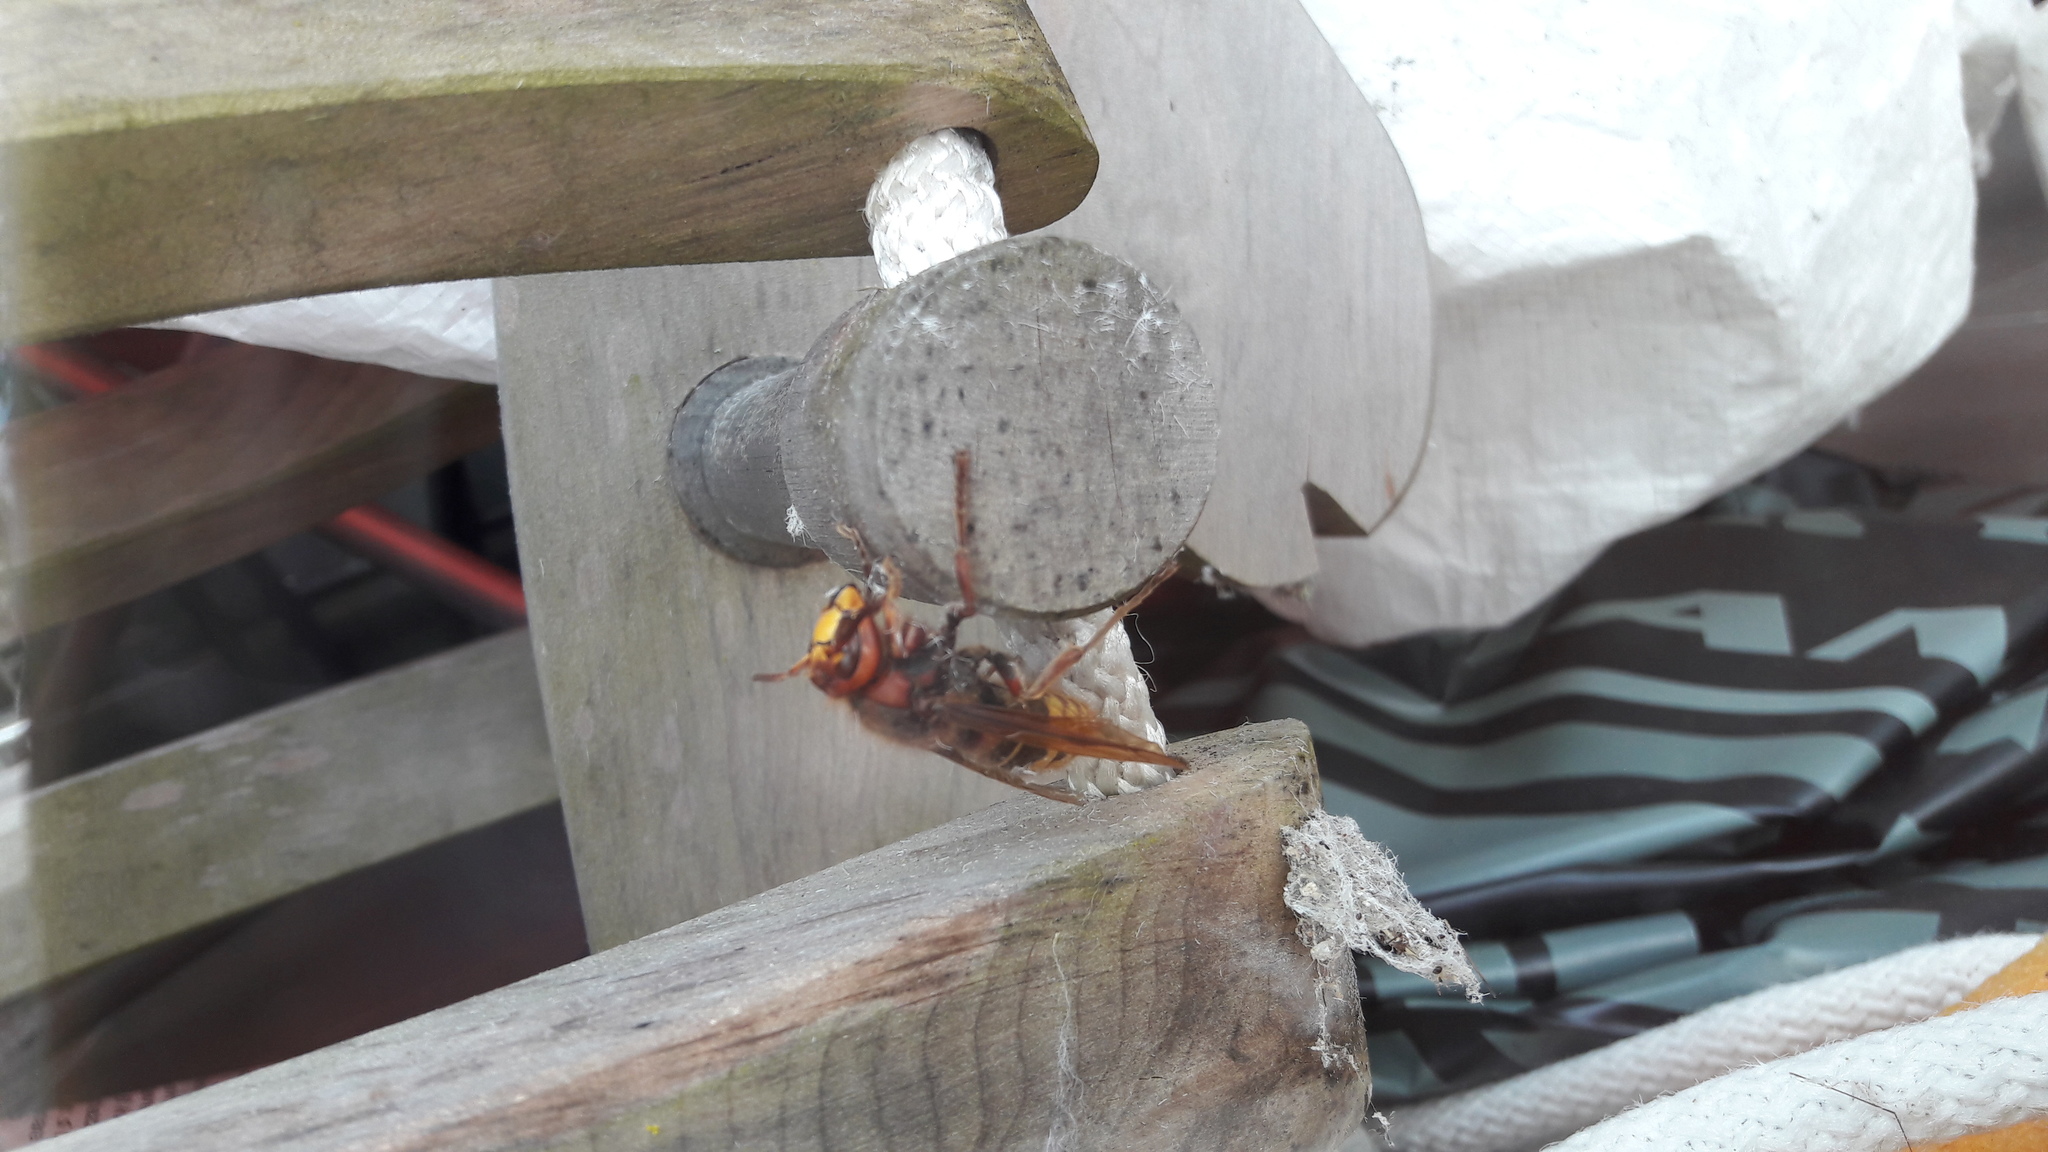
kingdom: Animalia
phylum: Arthropoda
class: Insecta
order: Hymenoptera
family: Vespidae
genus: Vespa
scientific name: Vespa crabro
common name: Hornet
